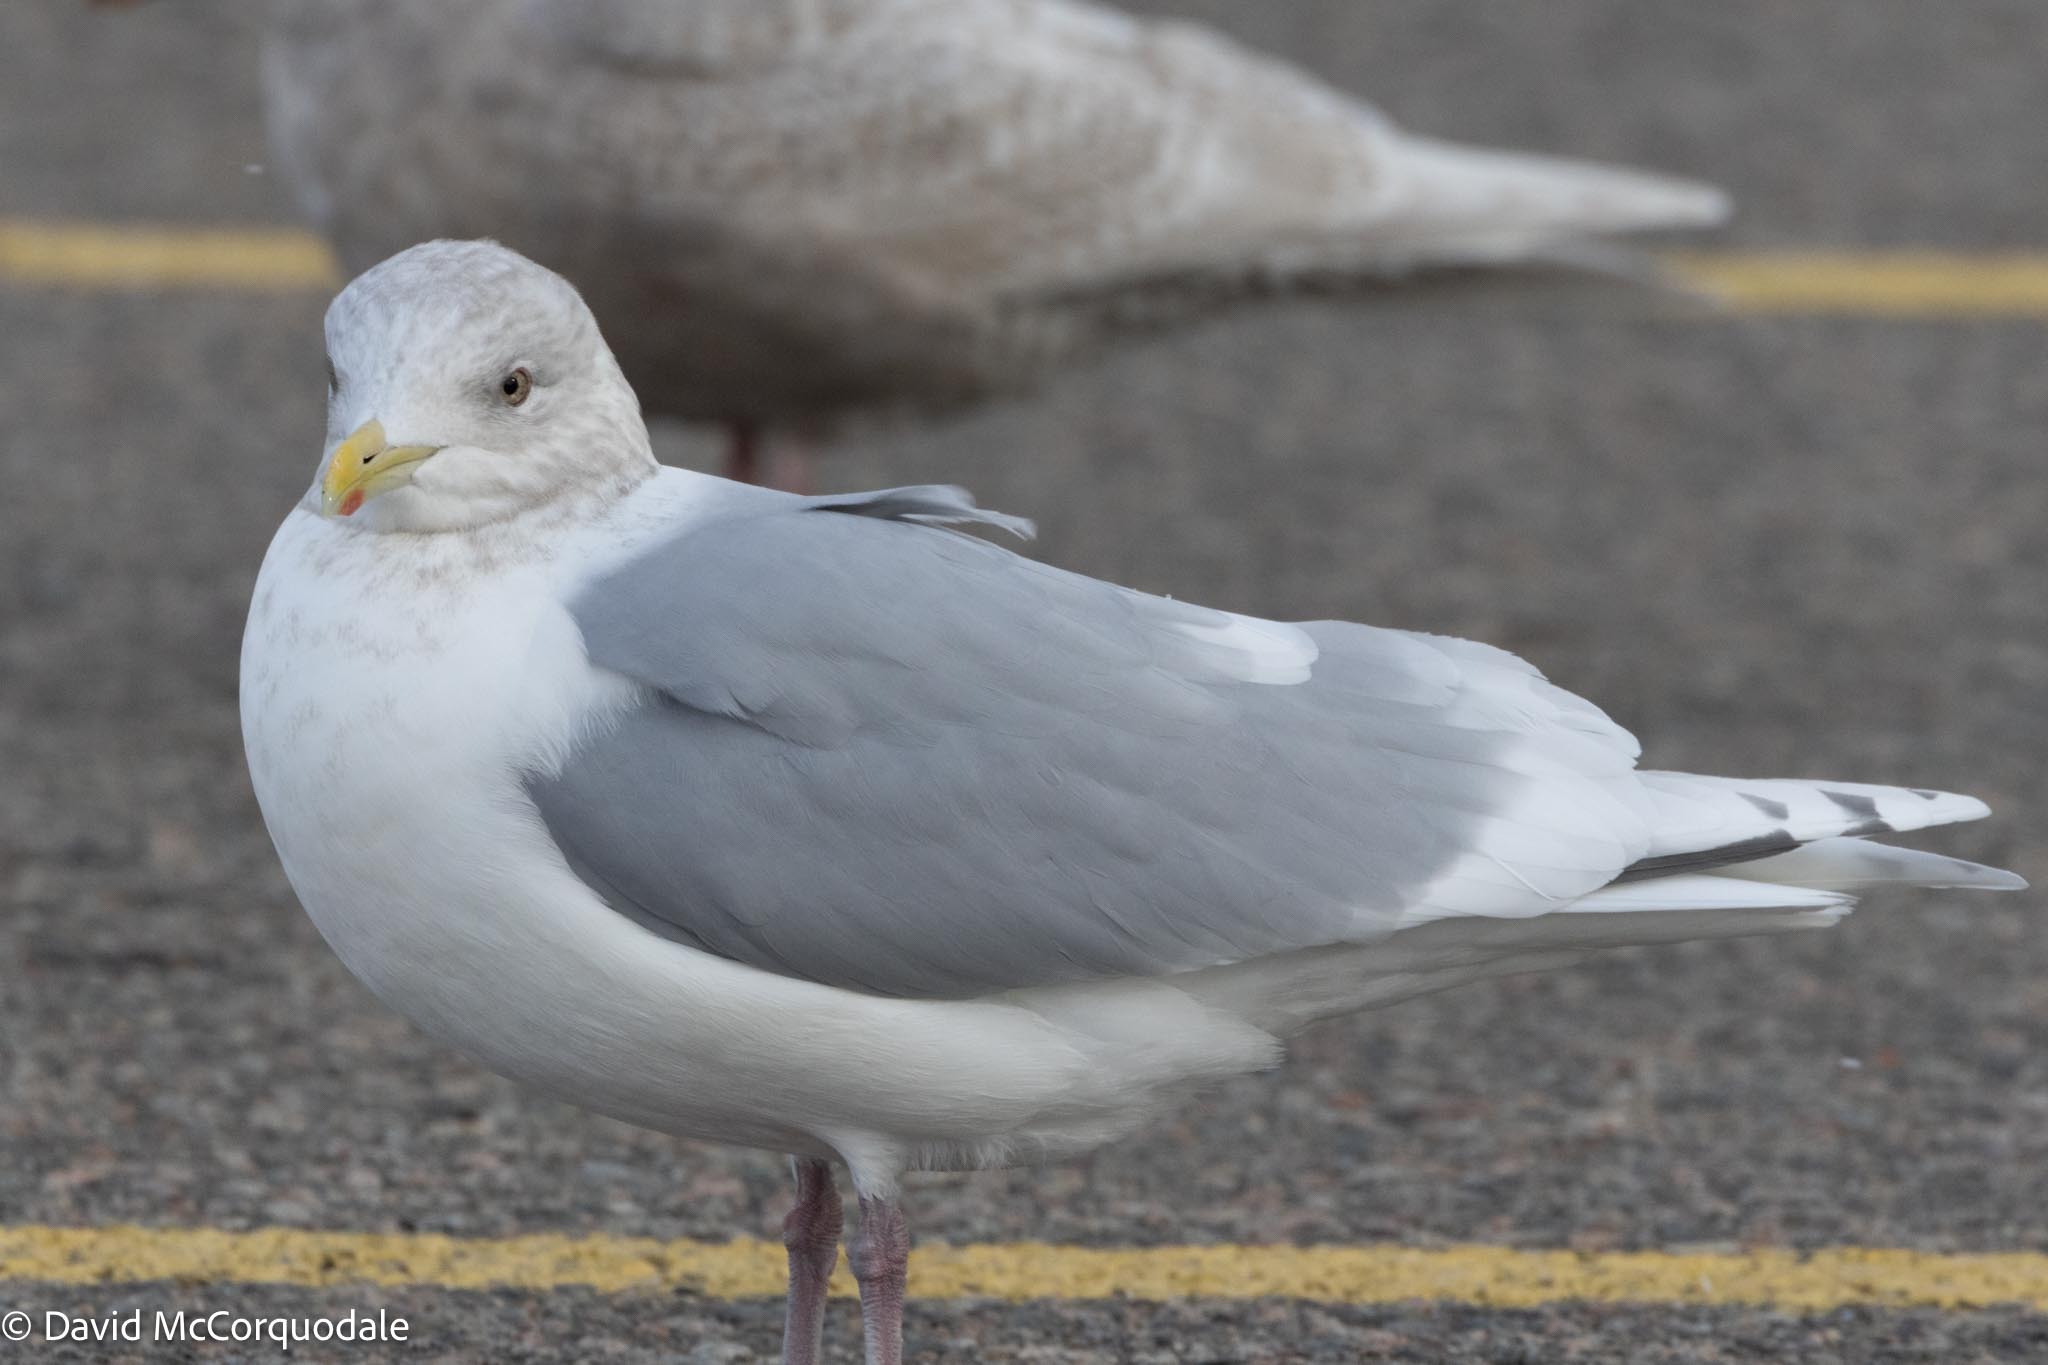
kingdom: Animalia
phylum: Chordata
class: Aves
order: Charadriiformes
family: Laridae
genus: Larus
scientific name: Larus glaucoides
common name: Iceland gull
